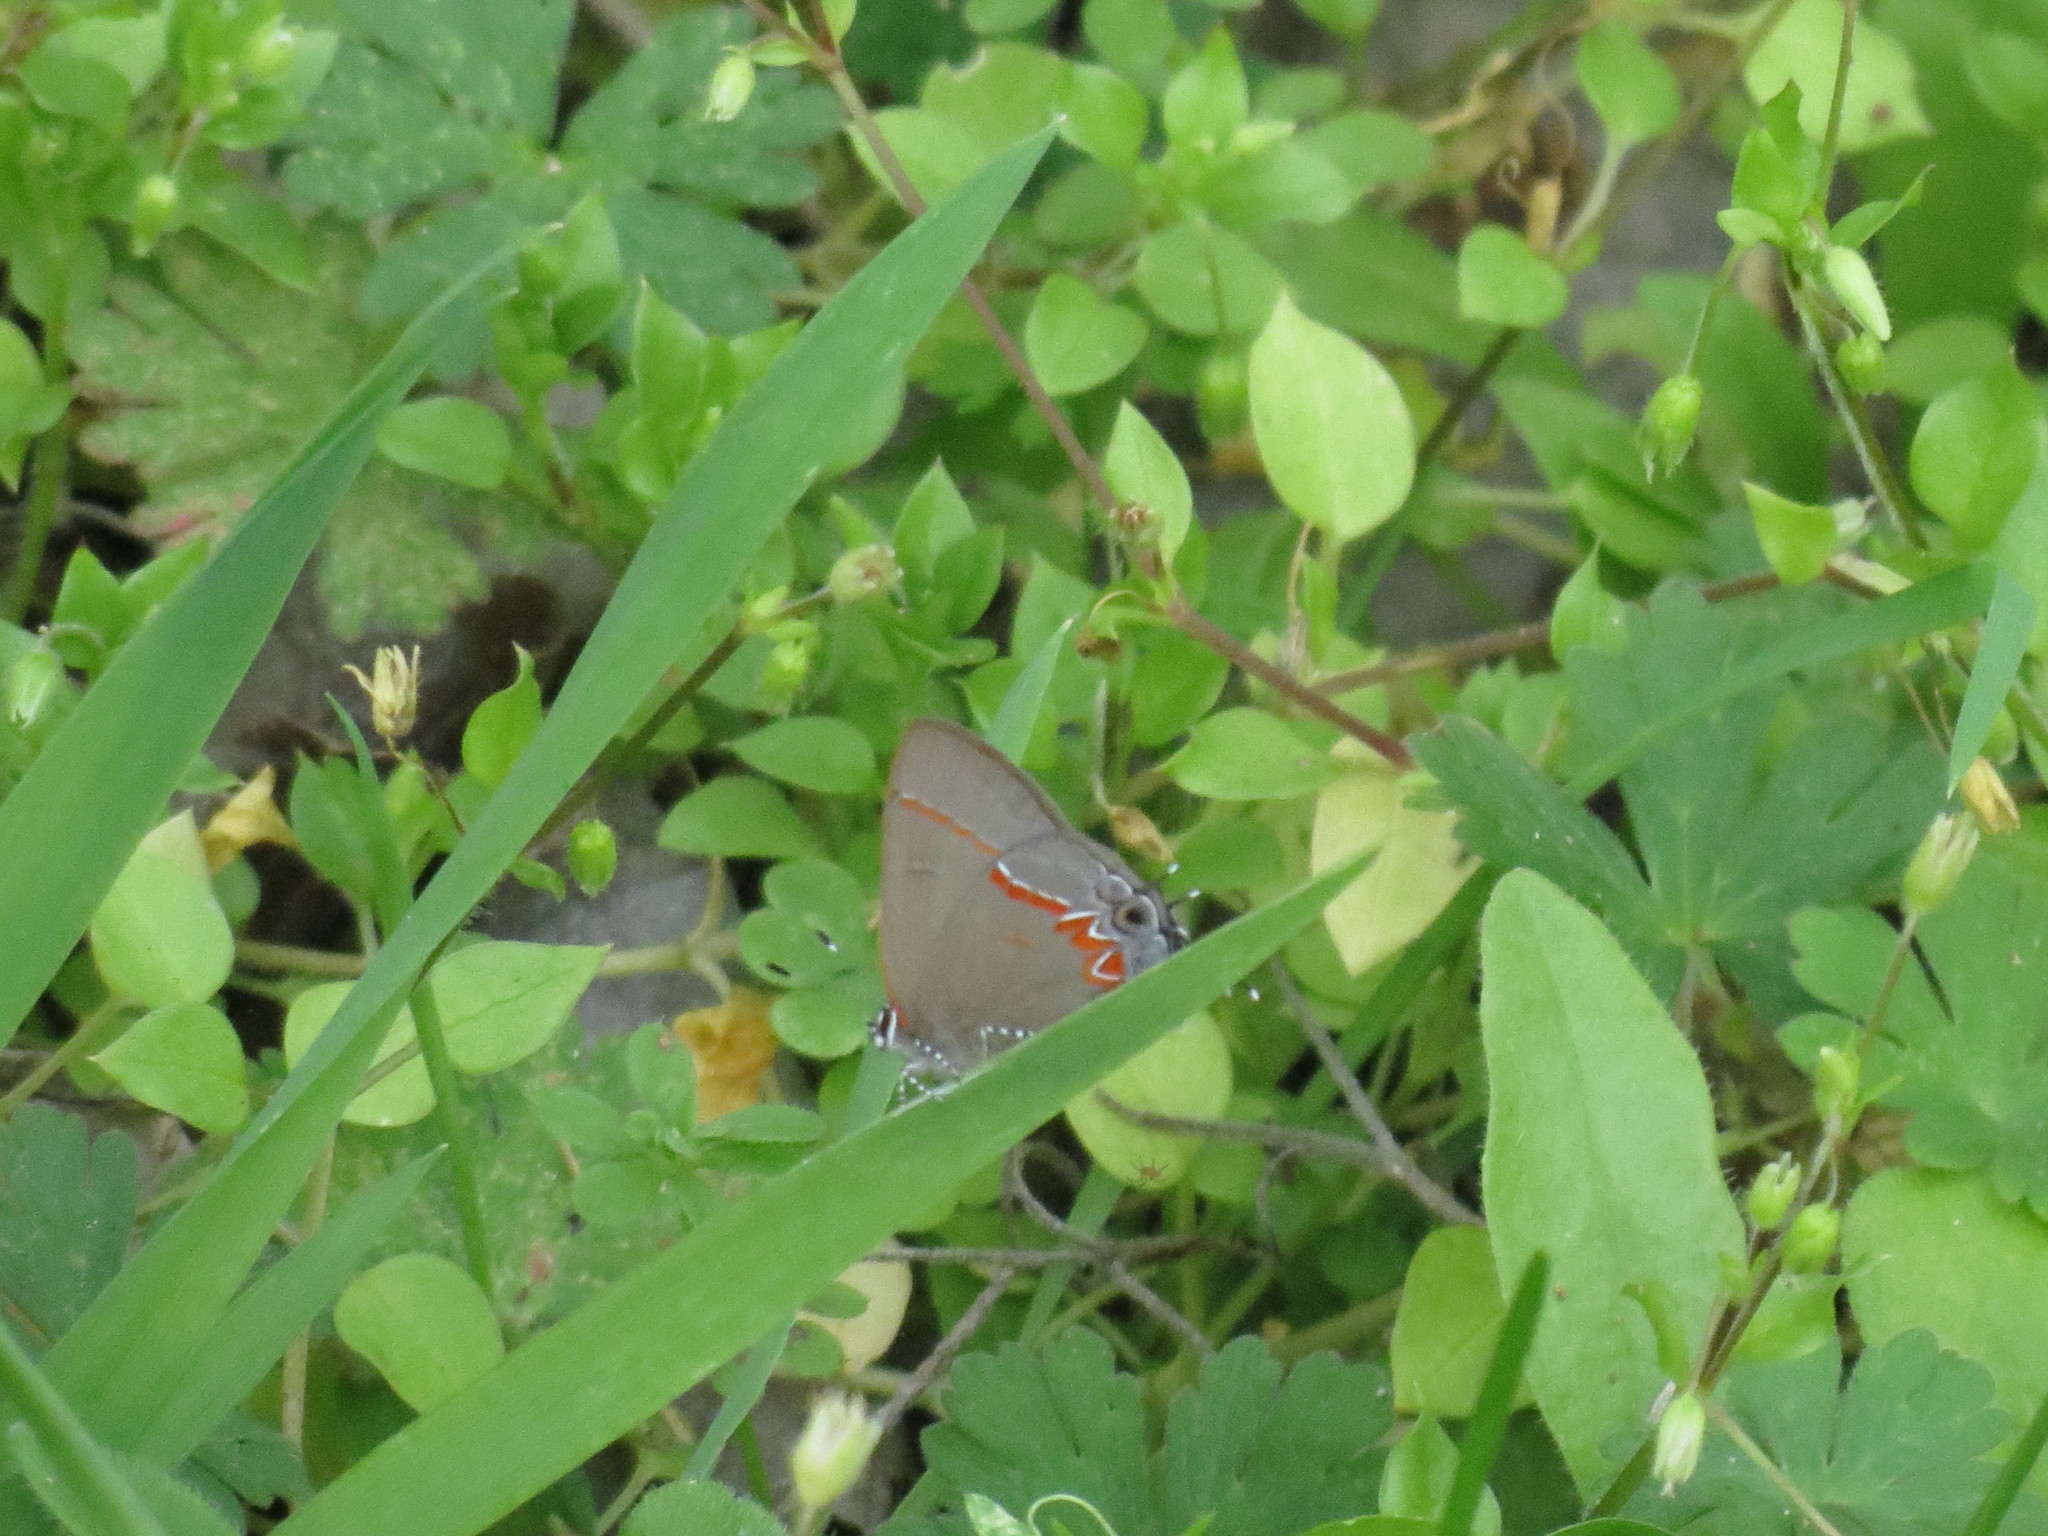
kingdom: Animalia
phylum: Arthropoda
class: Insecta
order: Lepidoptera
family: Lycaenidae
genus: Calycopis
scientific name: Calycopis cecrops
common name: Red-banded hairstreak
